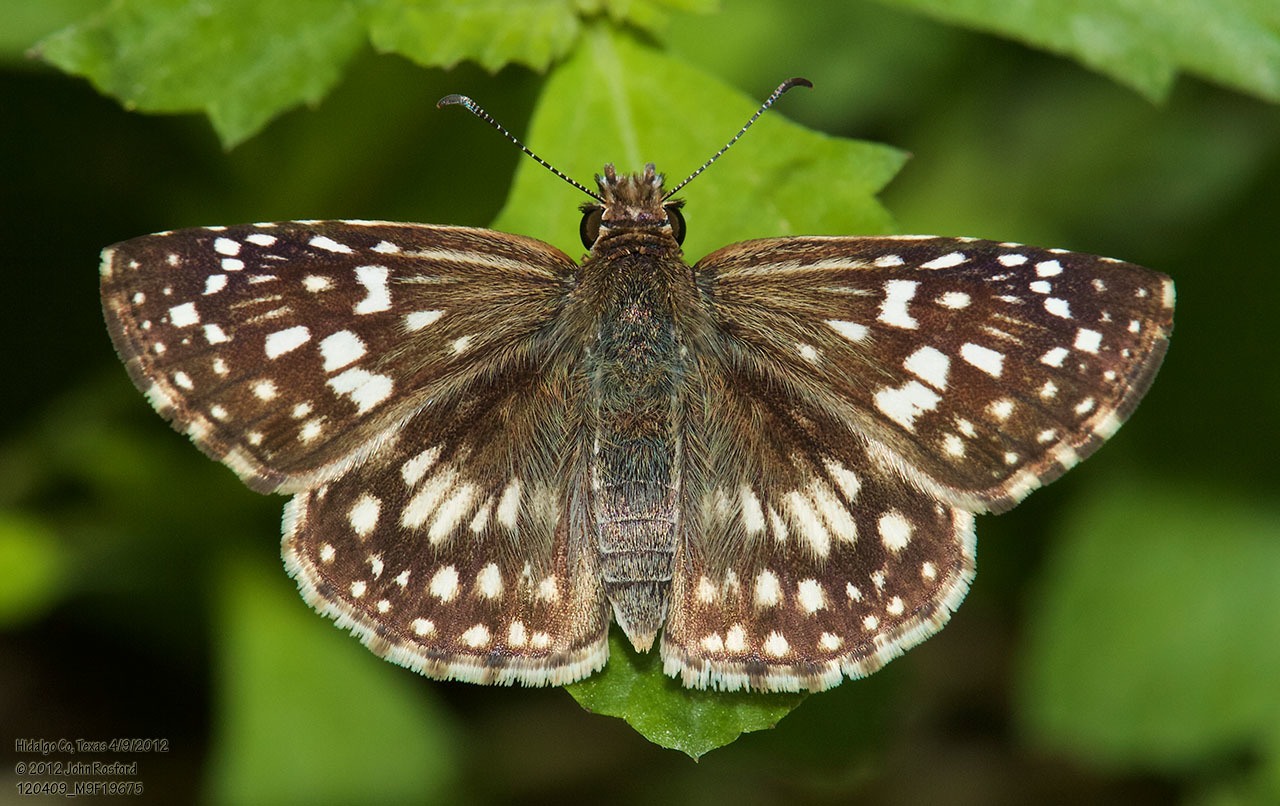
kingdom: Animalia
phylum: Arthropoda
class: Insecta
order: Lepidoptera
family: Hesperiidae
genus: Pyrgus
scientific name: Pyrgus oileus
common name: Tropical checkered-skipper
